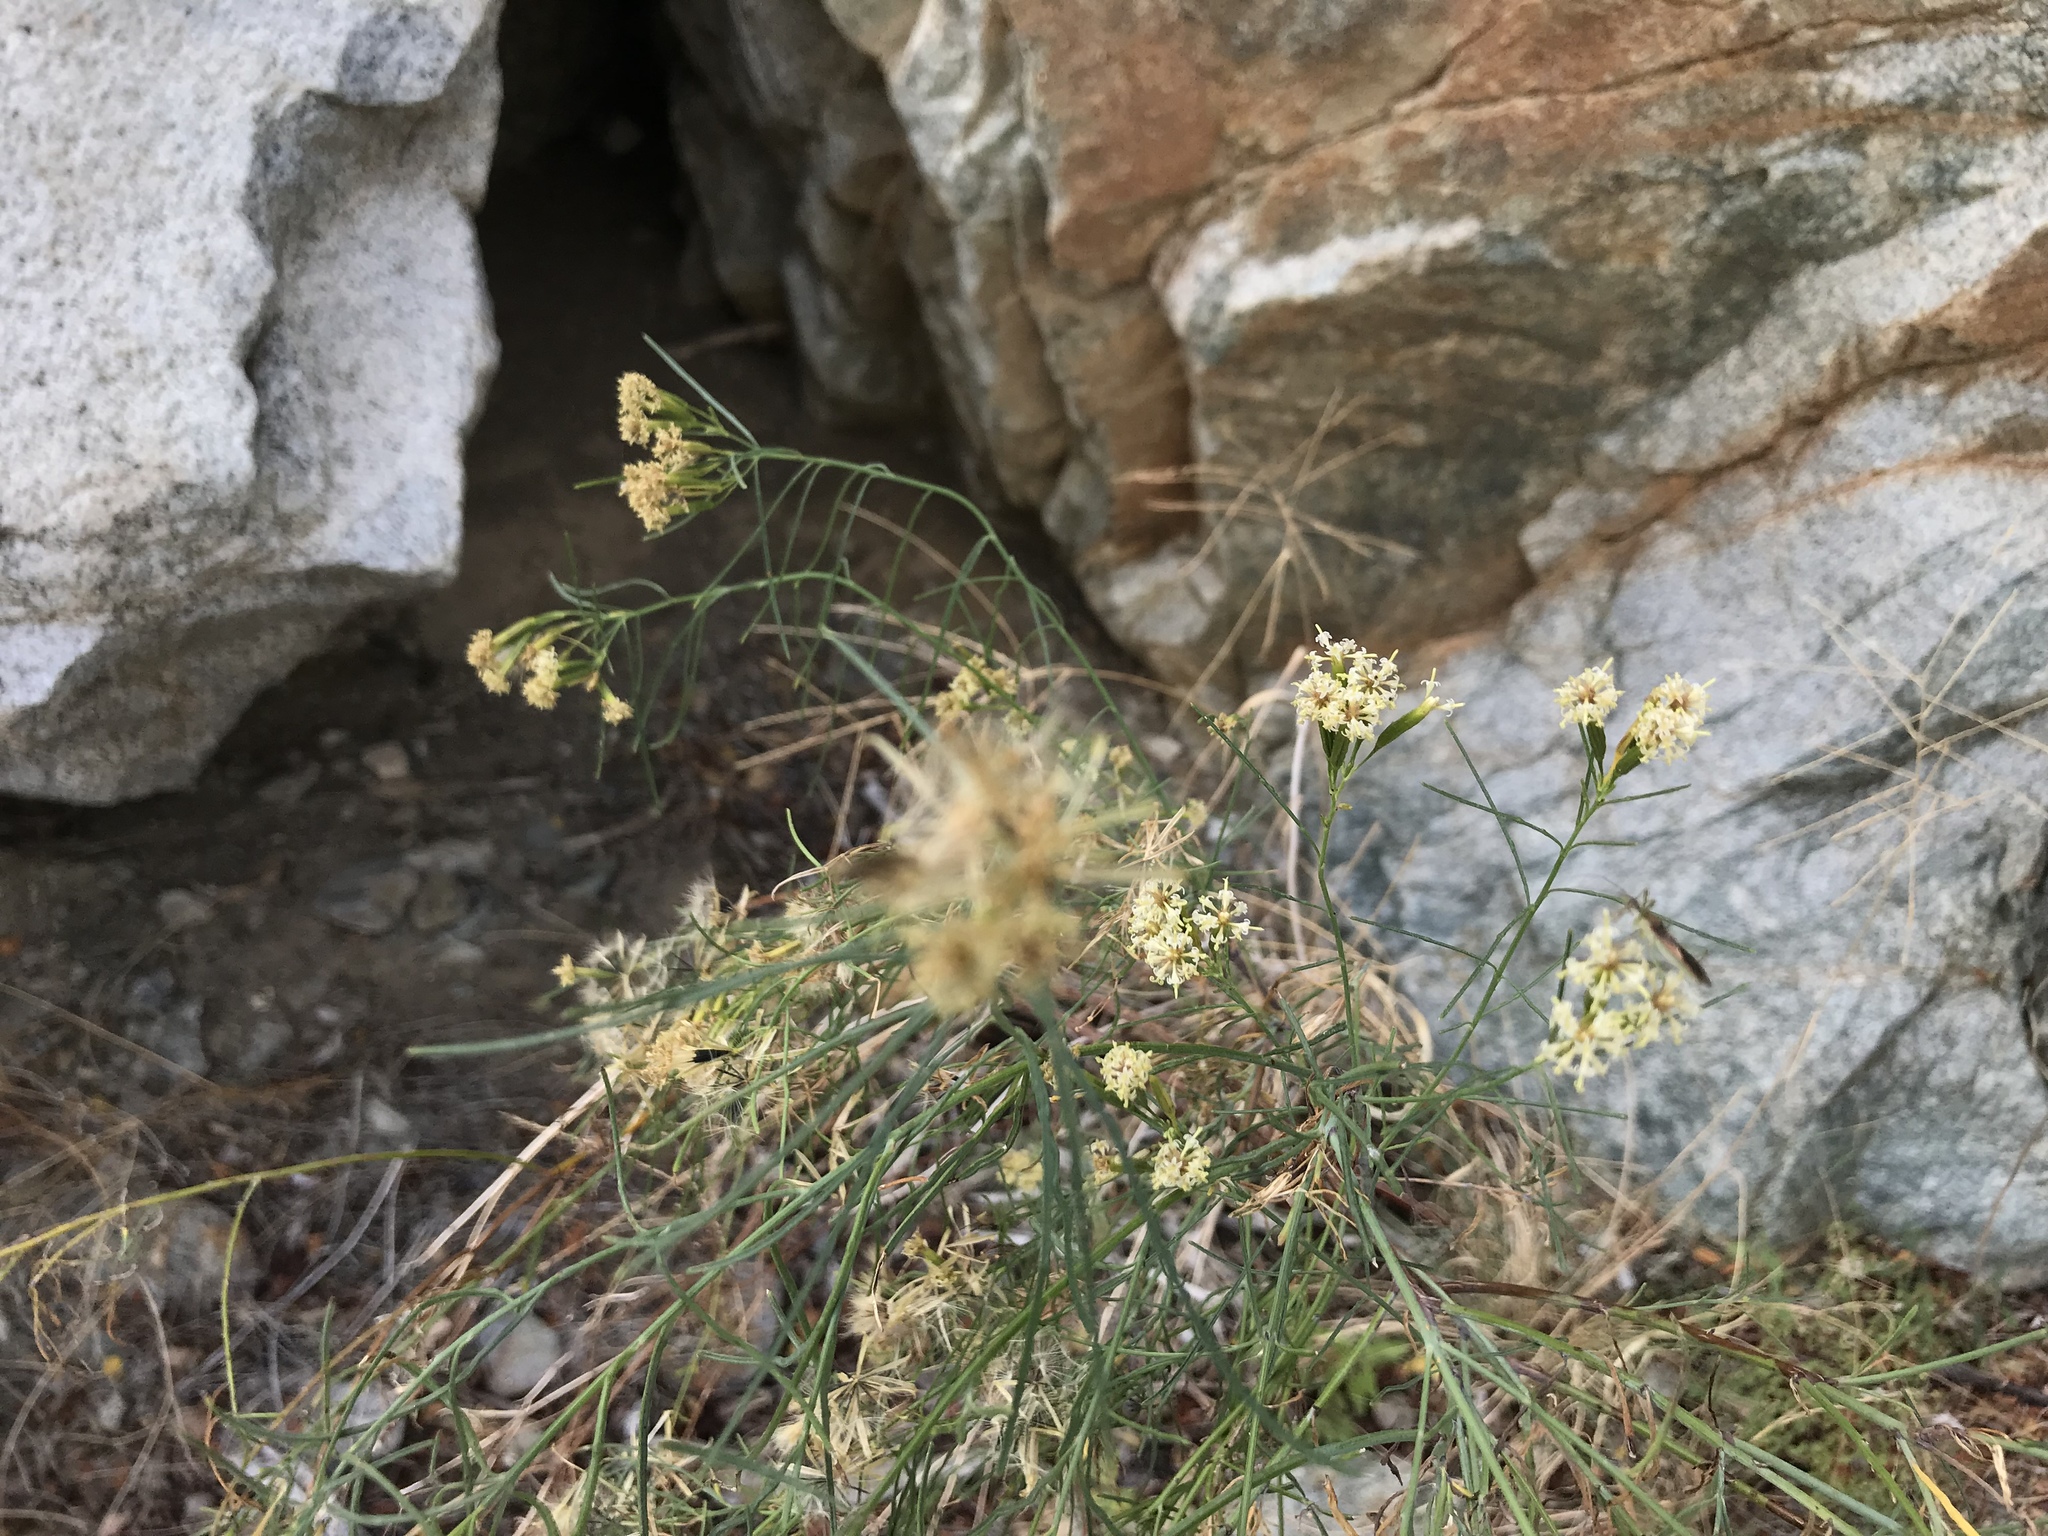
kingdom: Plantae
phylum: Tracheophyta
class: Magnoliopsida
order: Asterales
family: Asteraceae
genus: Porophyllum
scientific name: Porophyllum gracile
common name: Odora
